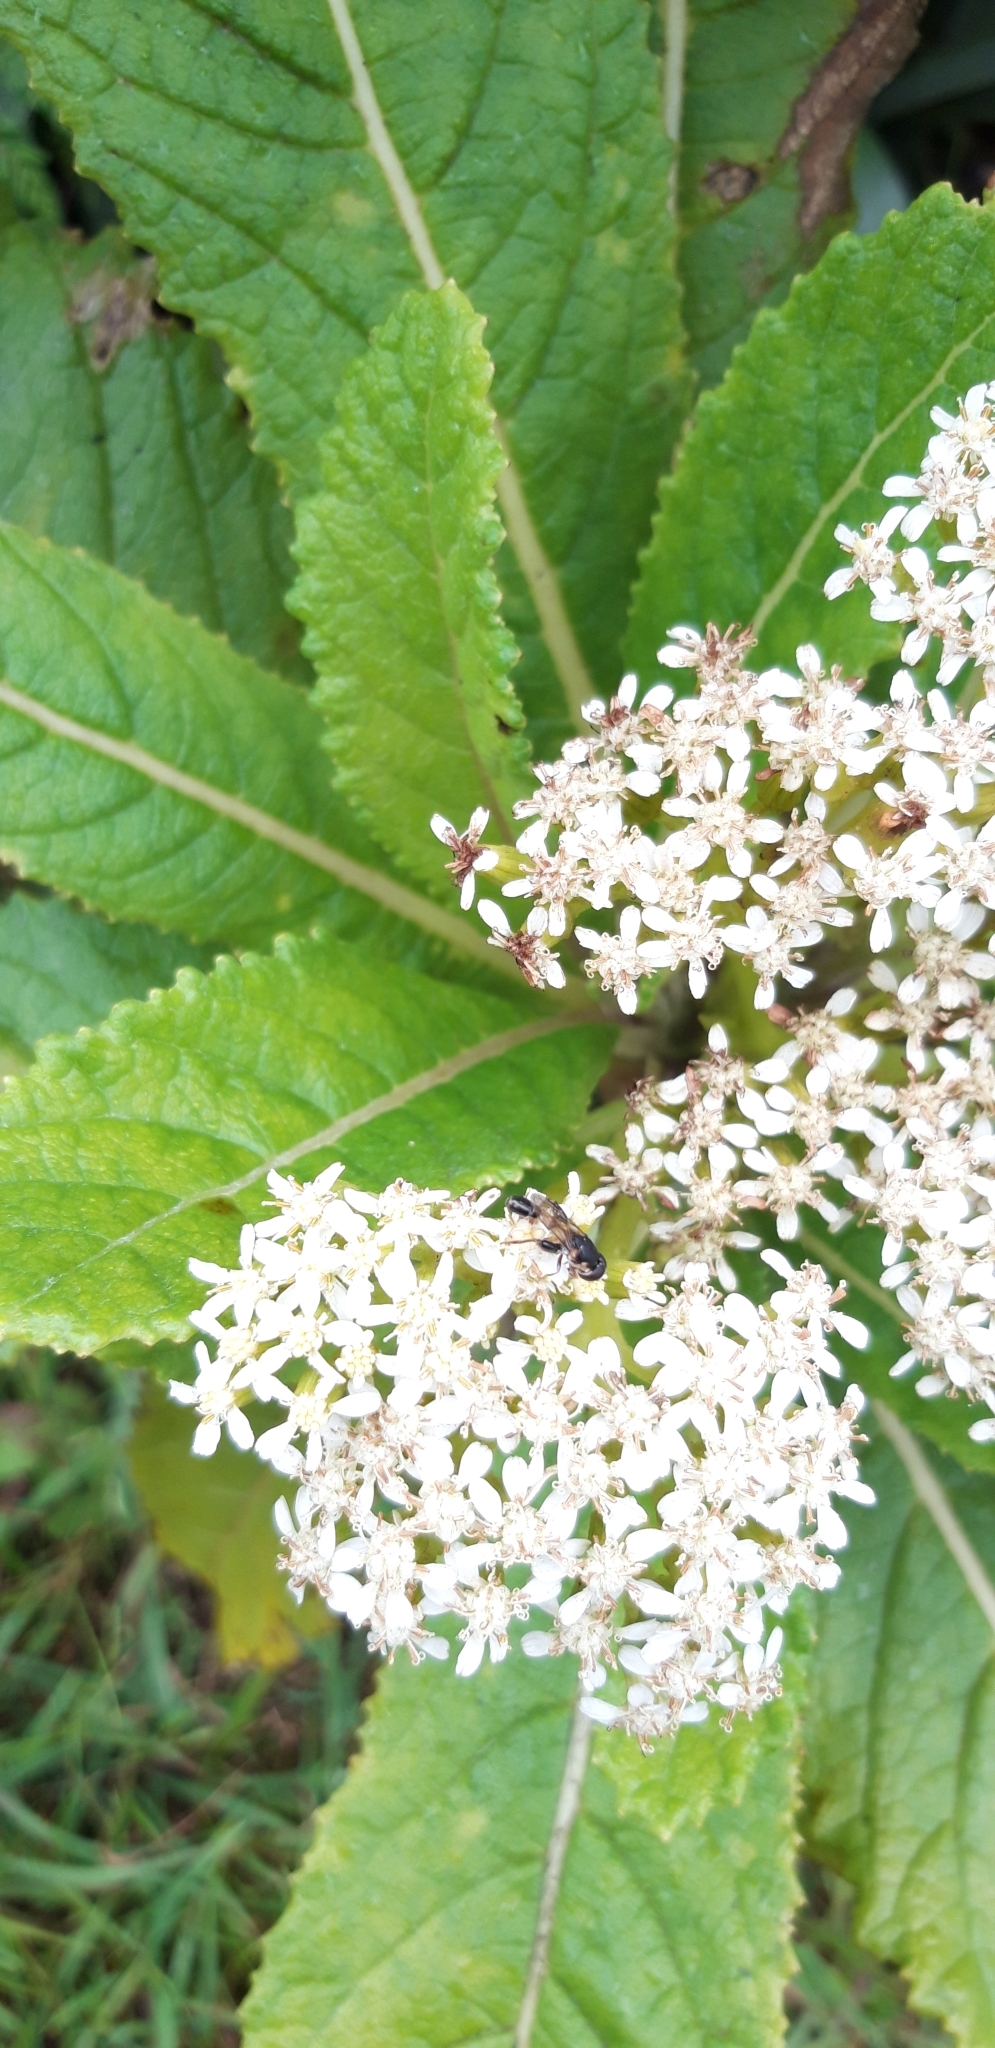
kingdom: Plantae
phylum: Tracheophyta
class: Magnoliopsida
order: Asterales
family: Asteraceae
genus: Pladaroxylon
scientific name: Pladaroxylon leucadendron
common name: He cabbage tree
